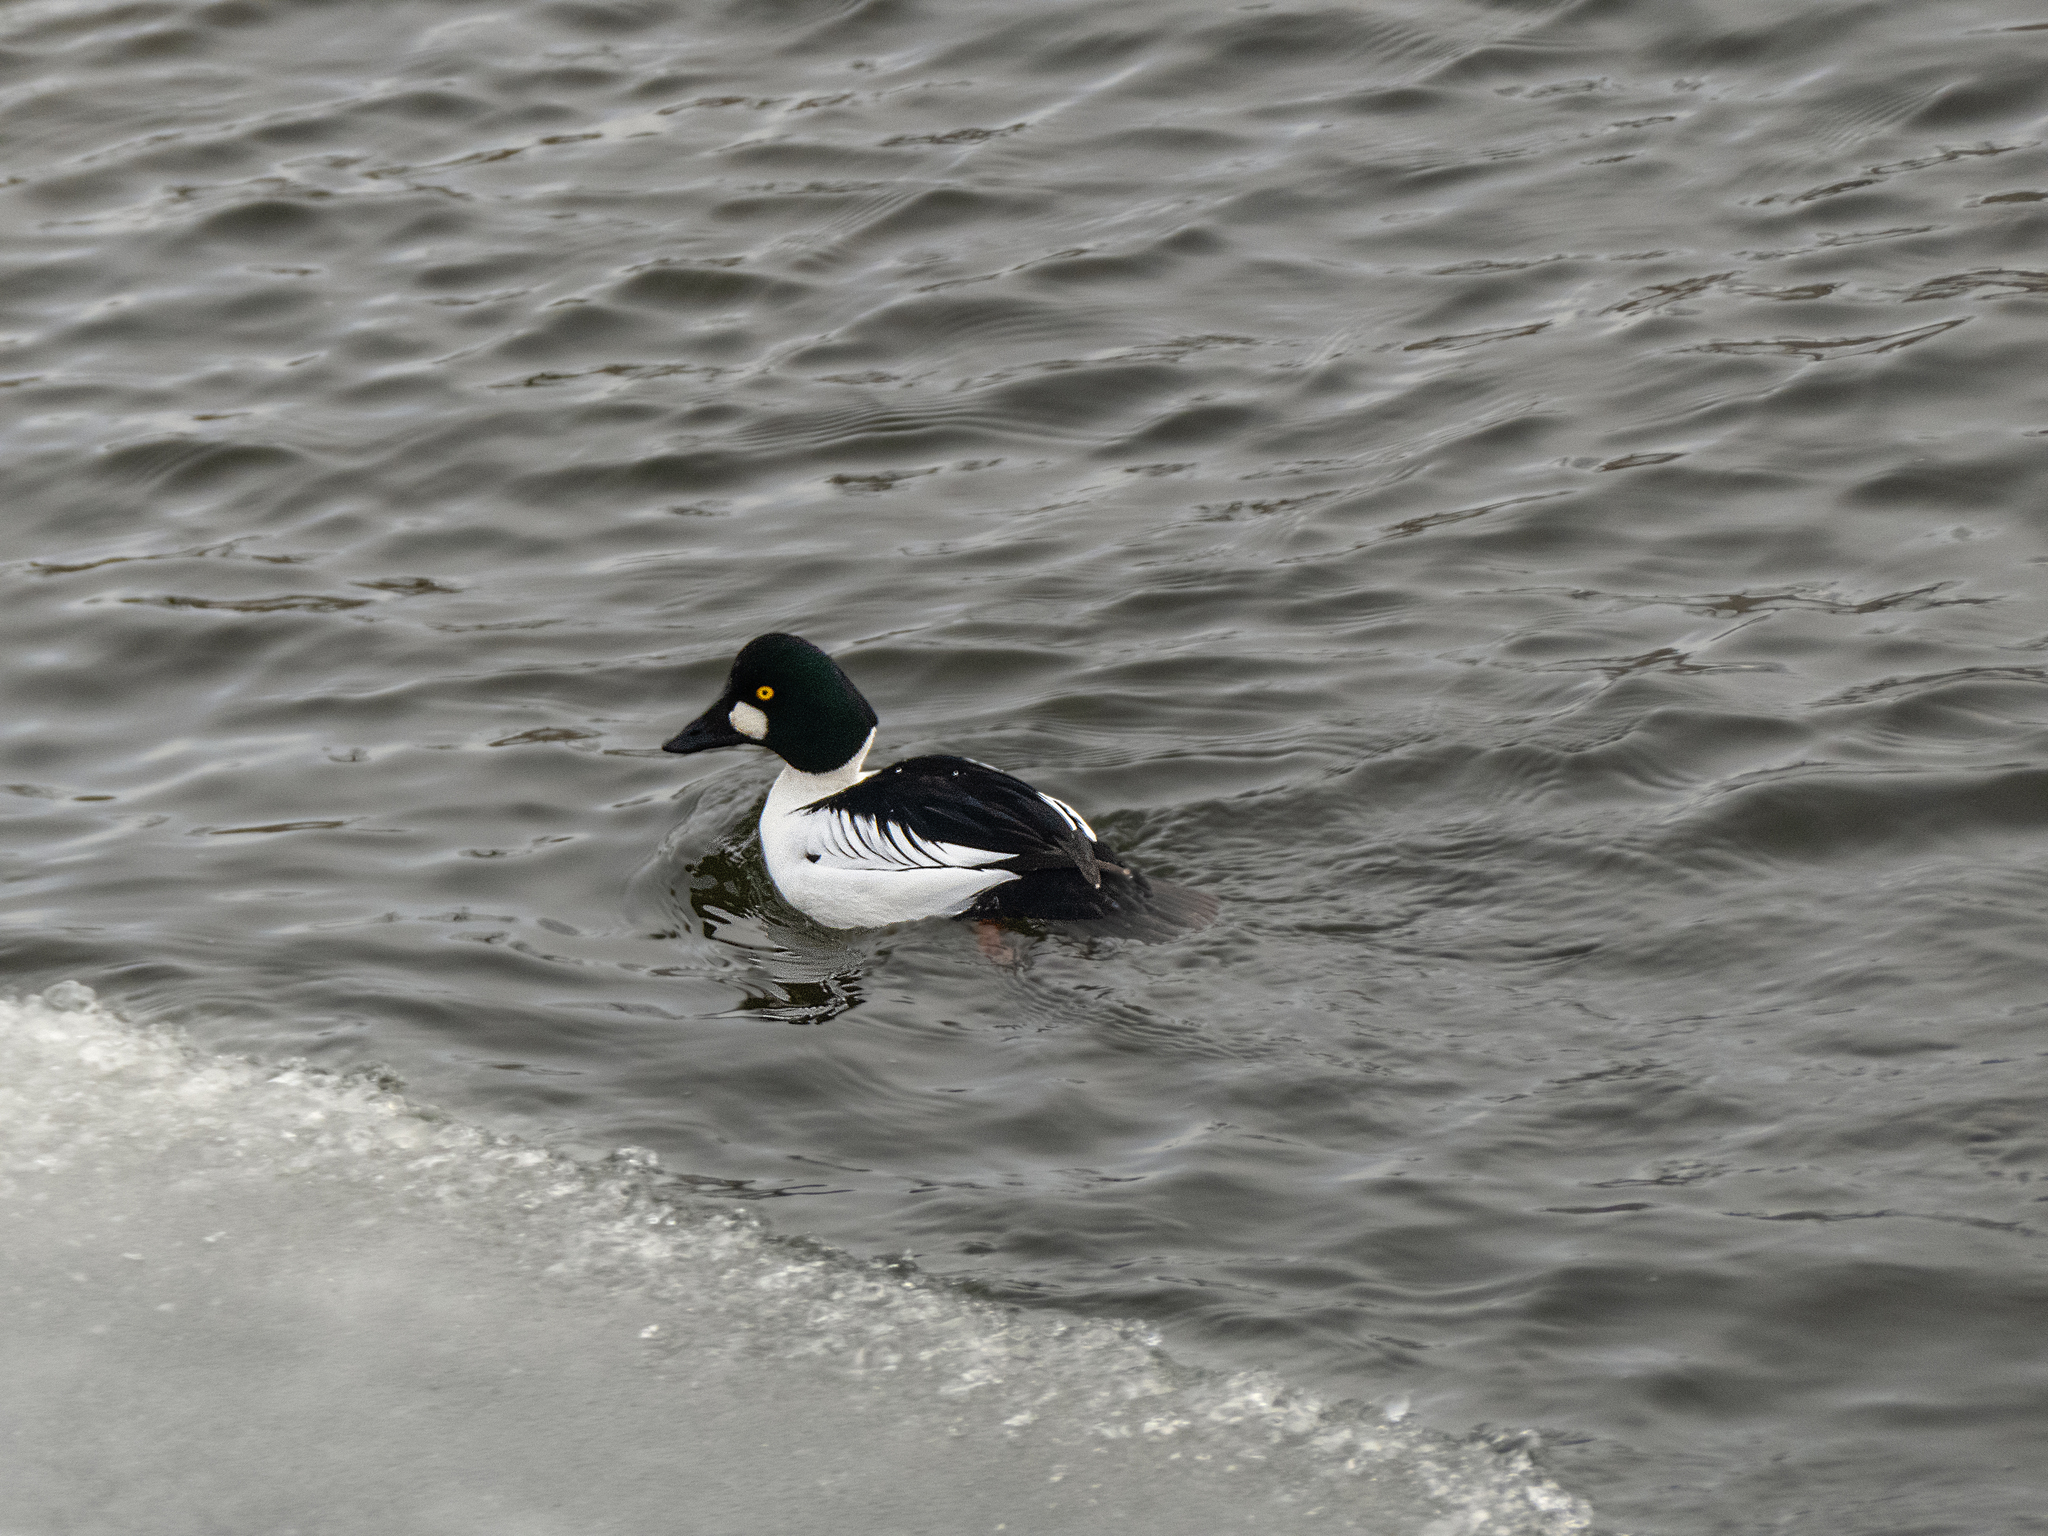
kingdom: Animalia
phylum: Chordata
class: Aves
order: Anseriformes
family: Anatidae
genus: Bucephala
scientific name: Bucephala clangula
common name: Common goldeneye
